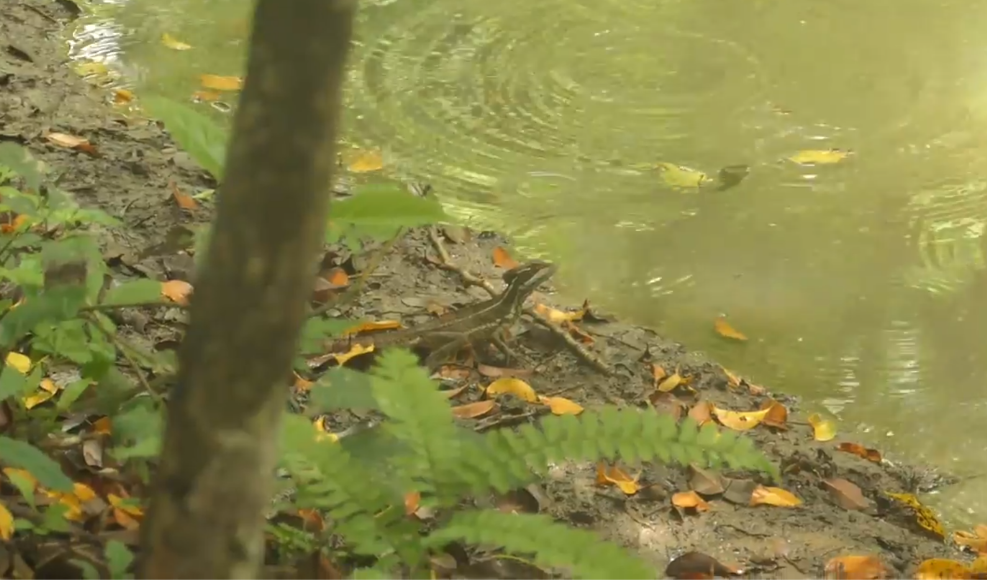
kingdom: Animalia
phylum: Chordata
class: Squamata
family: Corytophanidae
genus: Basiliscus
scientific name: Basiliscus basiliscus
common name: Common basilisk
